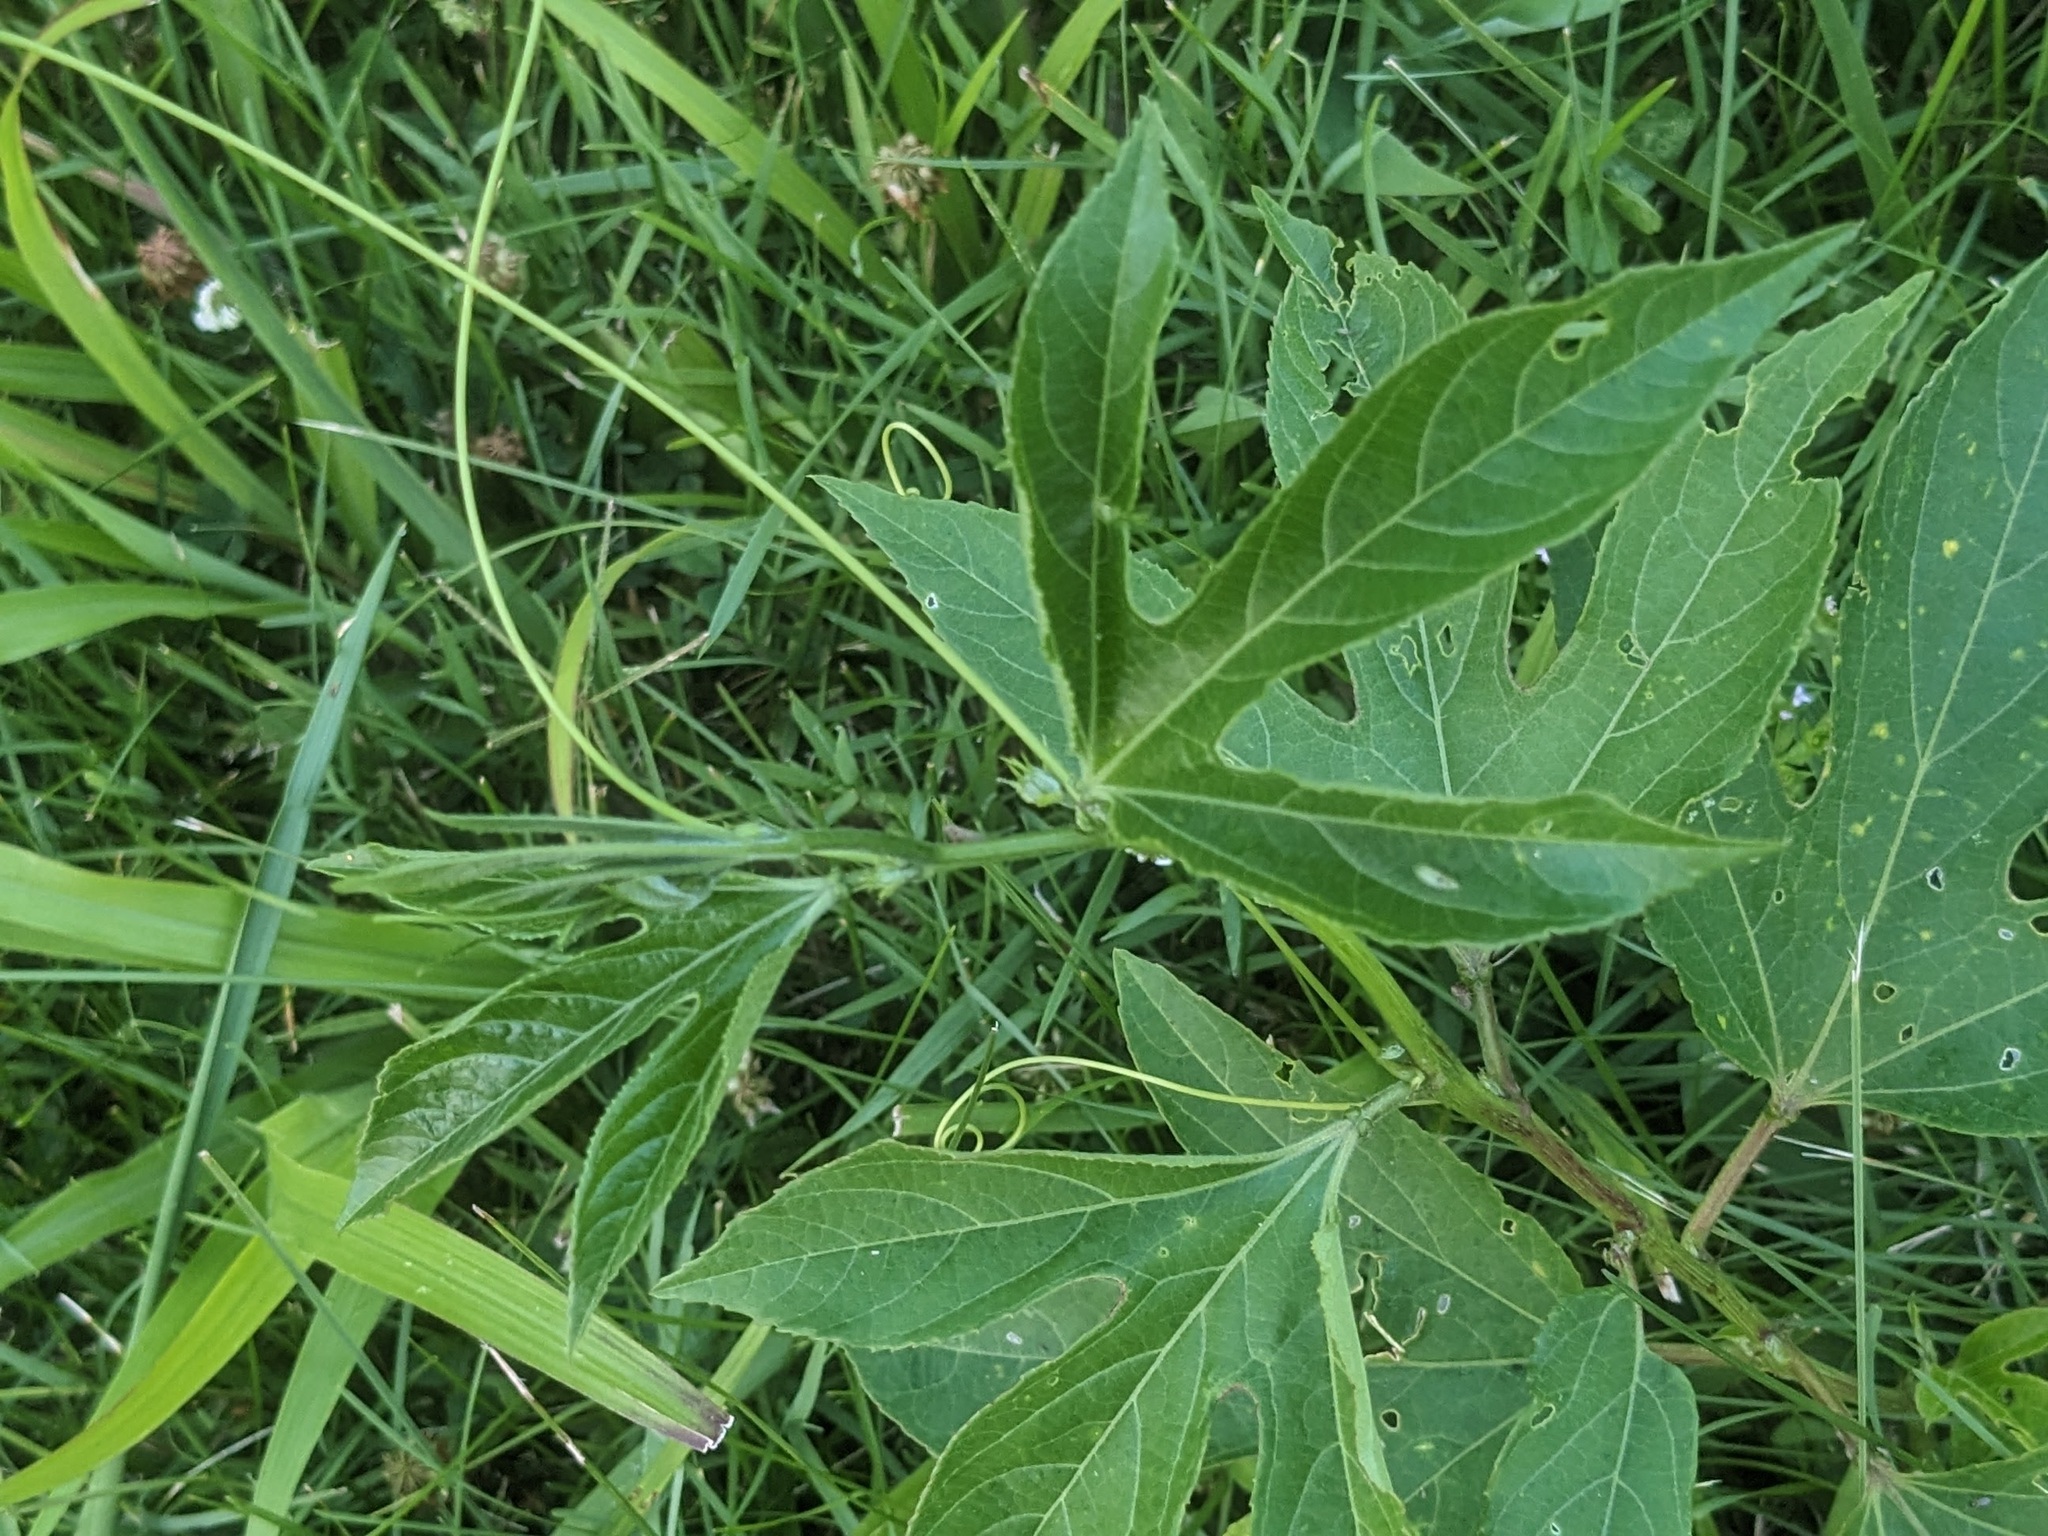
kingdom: Plantae
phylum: Tracheophyta
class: Magnoliopsida
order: Malpighiales
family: Passifloraceae
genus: Passiflora
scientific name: Passiflora incarnata
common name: Apricot-vine
